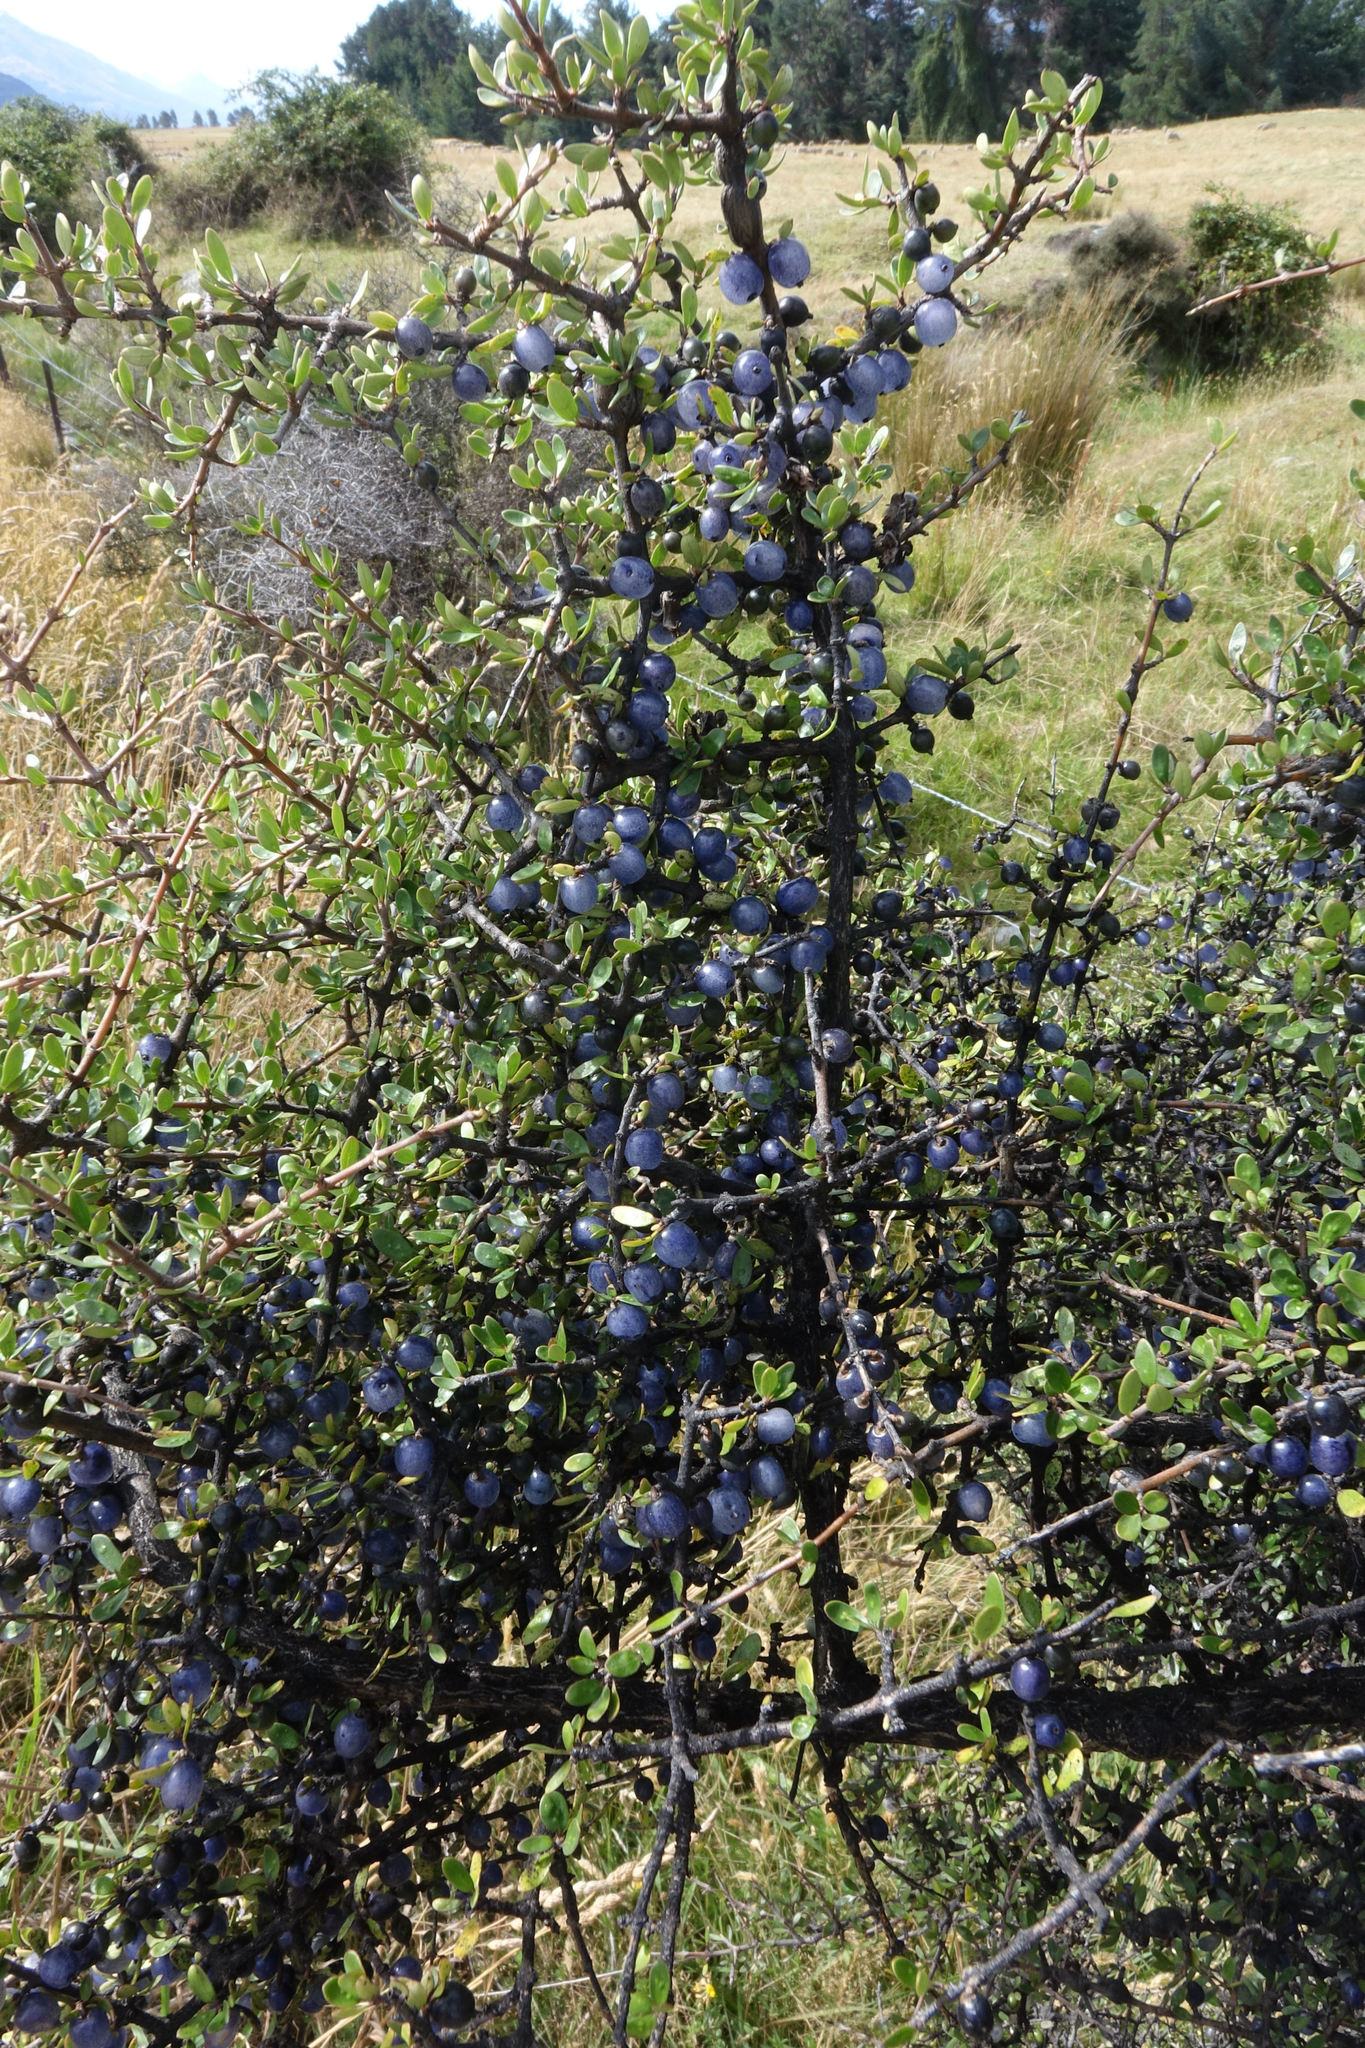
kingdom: Plantae
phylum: Tracheophyta
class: Magnoliopsida
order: Gentianales
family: Rubiaceae
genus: Coprosma
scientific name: Coprosma propinqua
